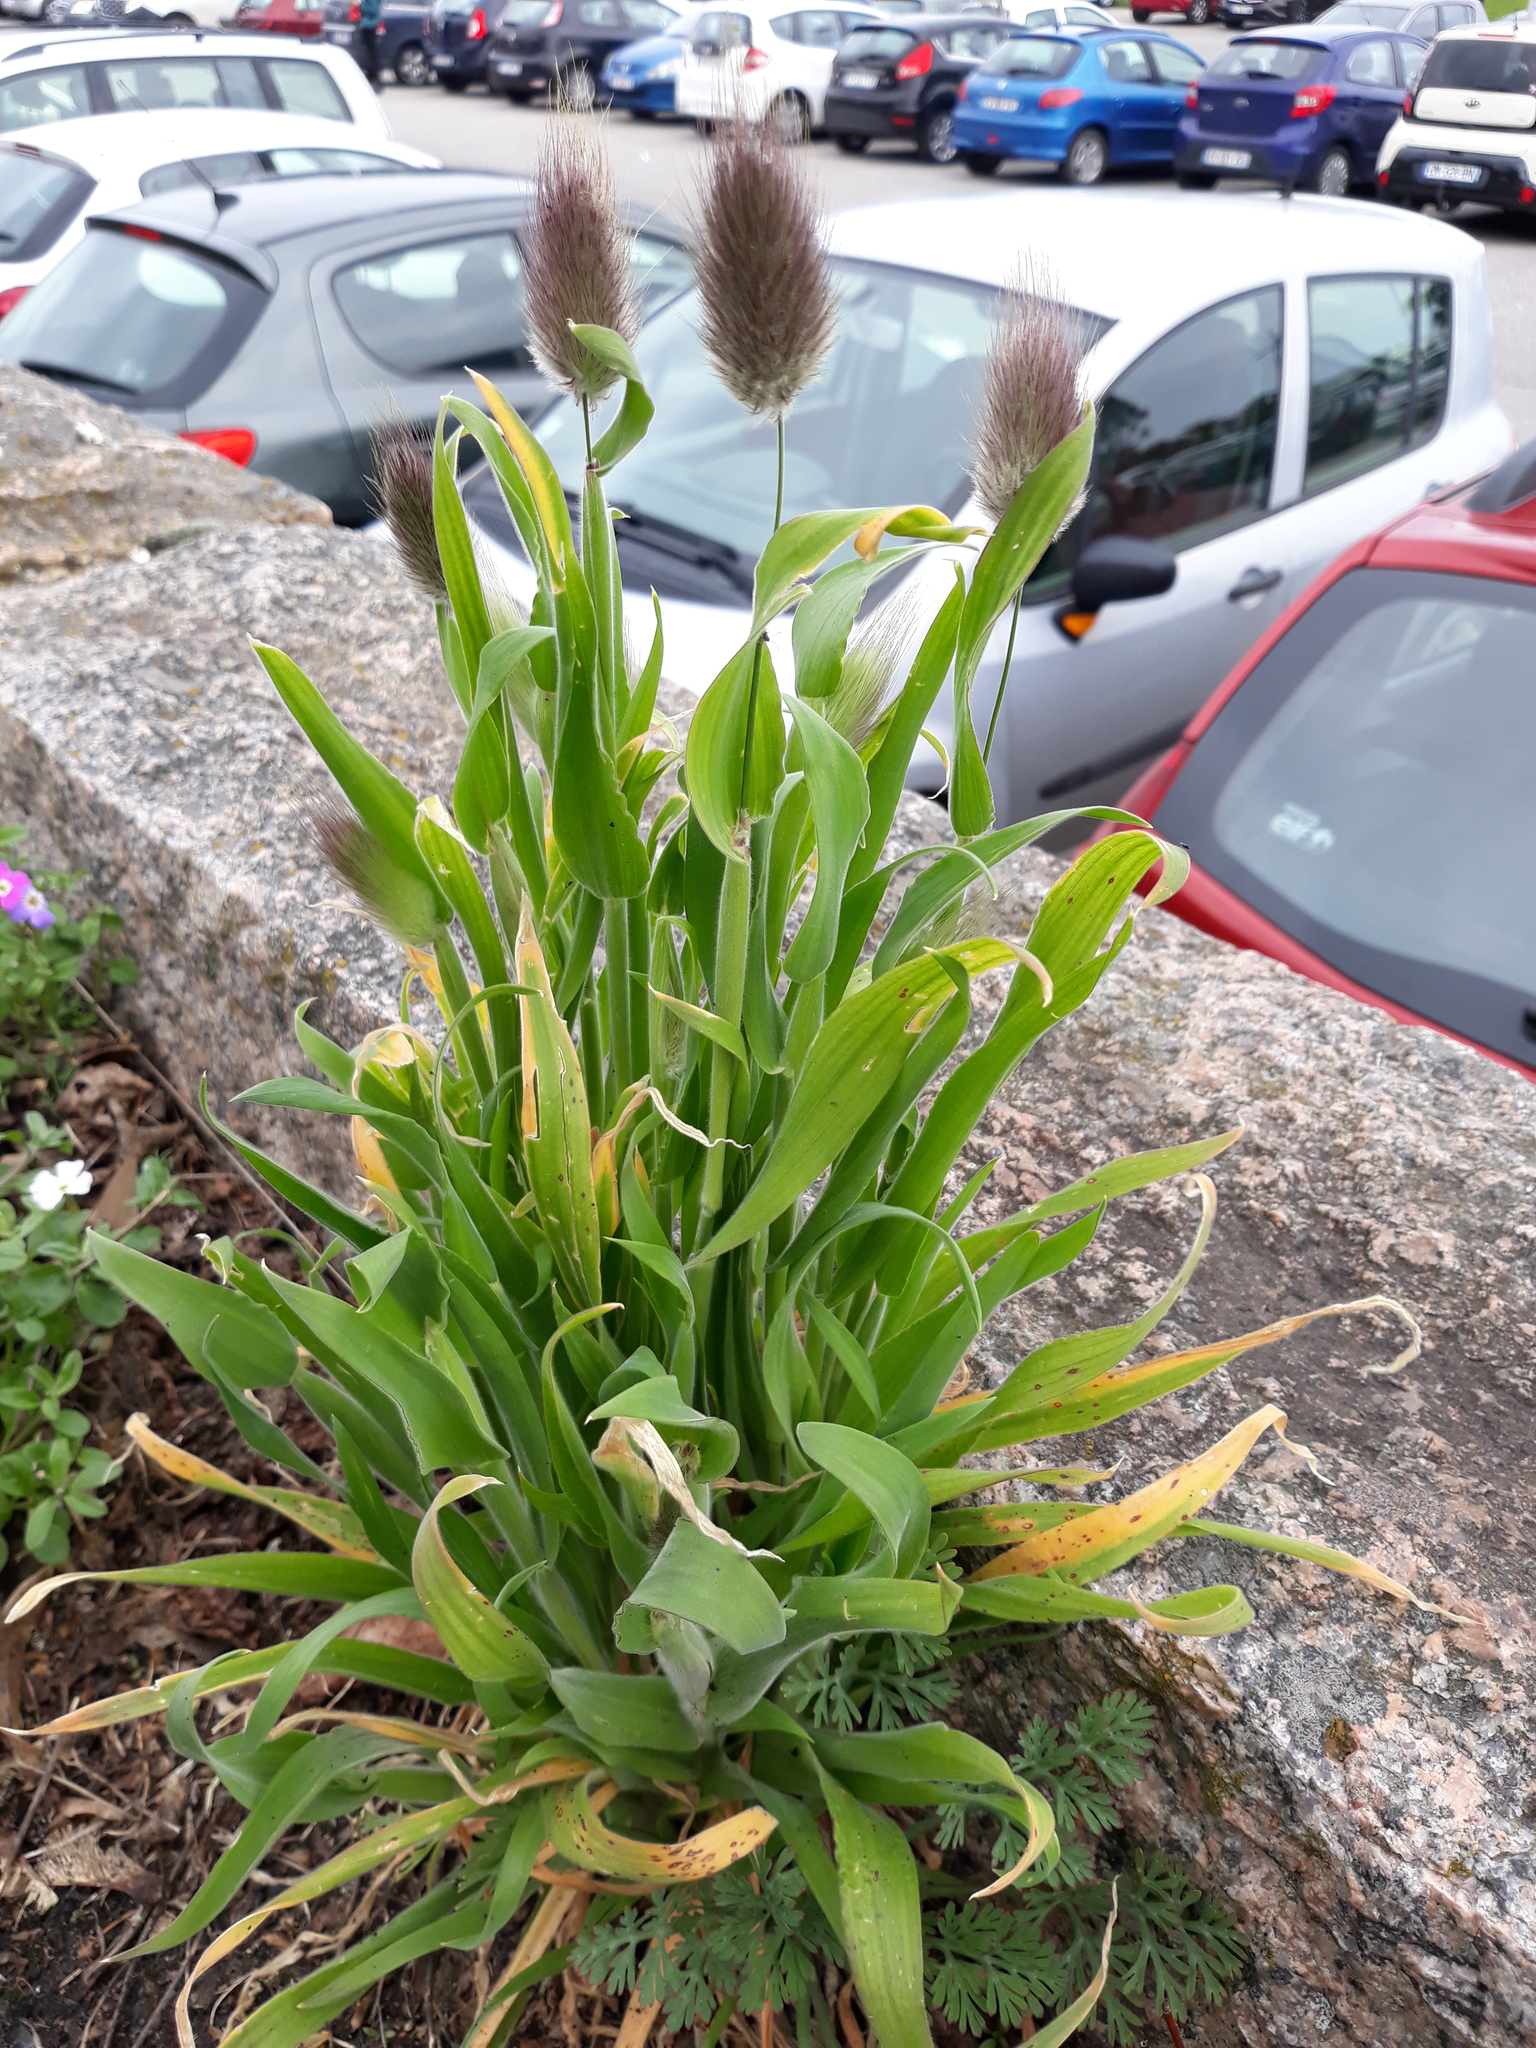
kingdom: Plantae
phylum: Tracheophyta
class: Liliopsida
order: Poales
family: Poaceae
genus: Lagurus
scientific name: Lagurus ovatus
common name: Hare's-tail
